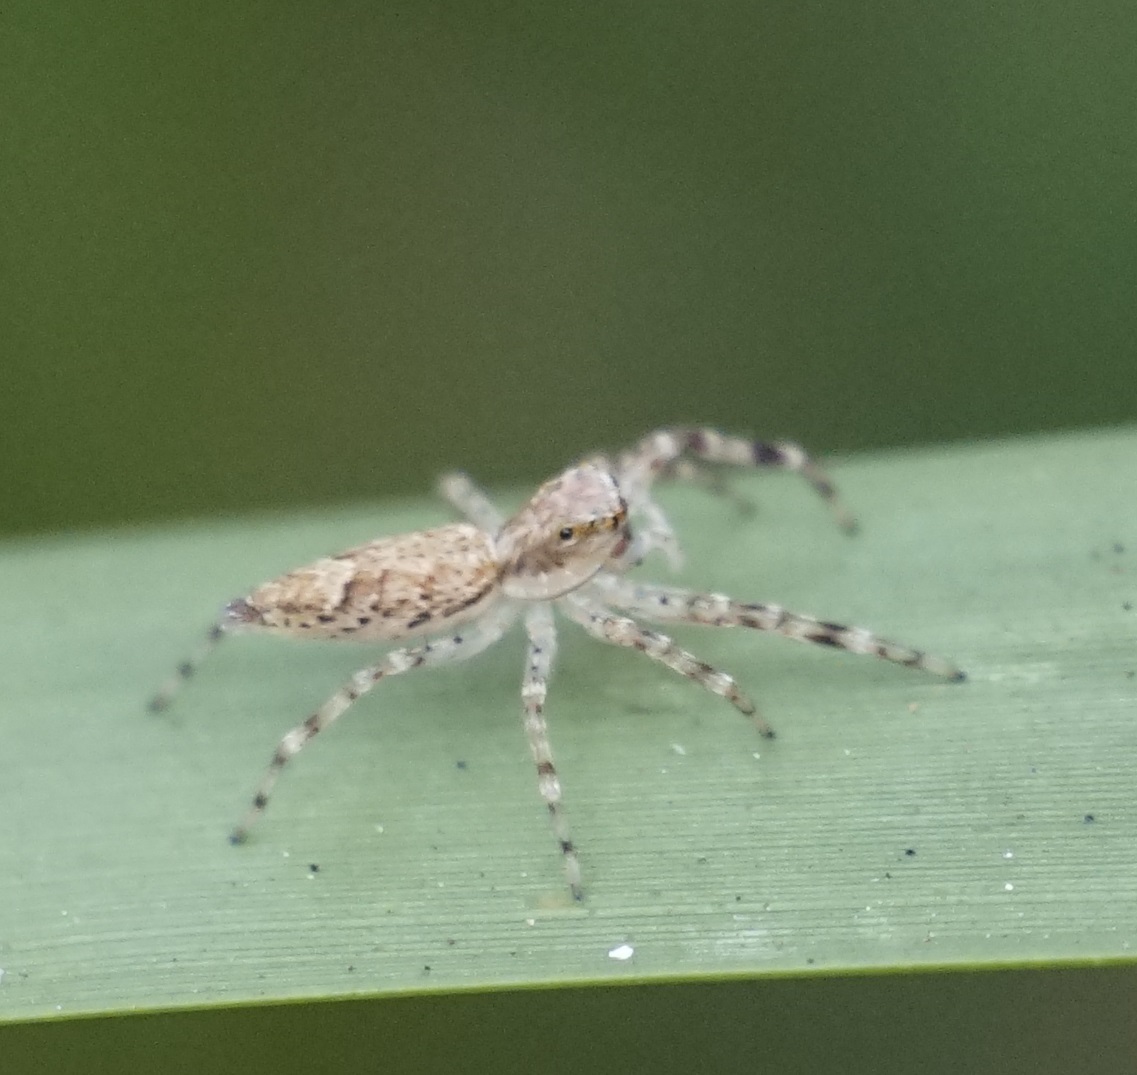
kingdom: Animalia
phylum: Arthropoda
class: Arachnida
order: Araneae
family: Salticidae
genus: Helpis
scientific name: Helpis minitabunda
